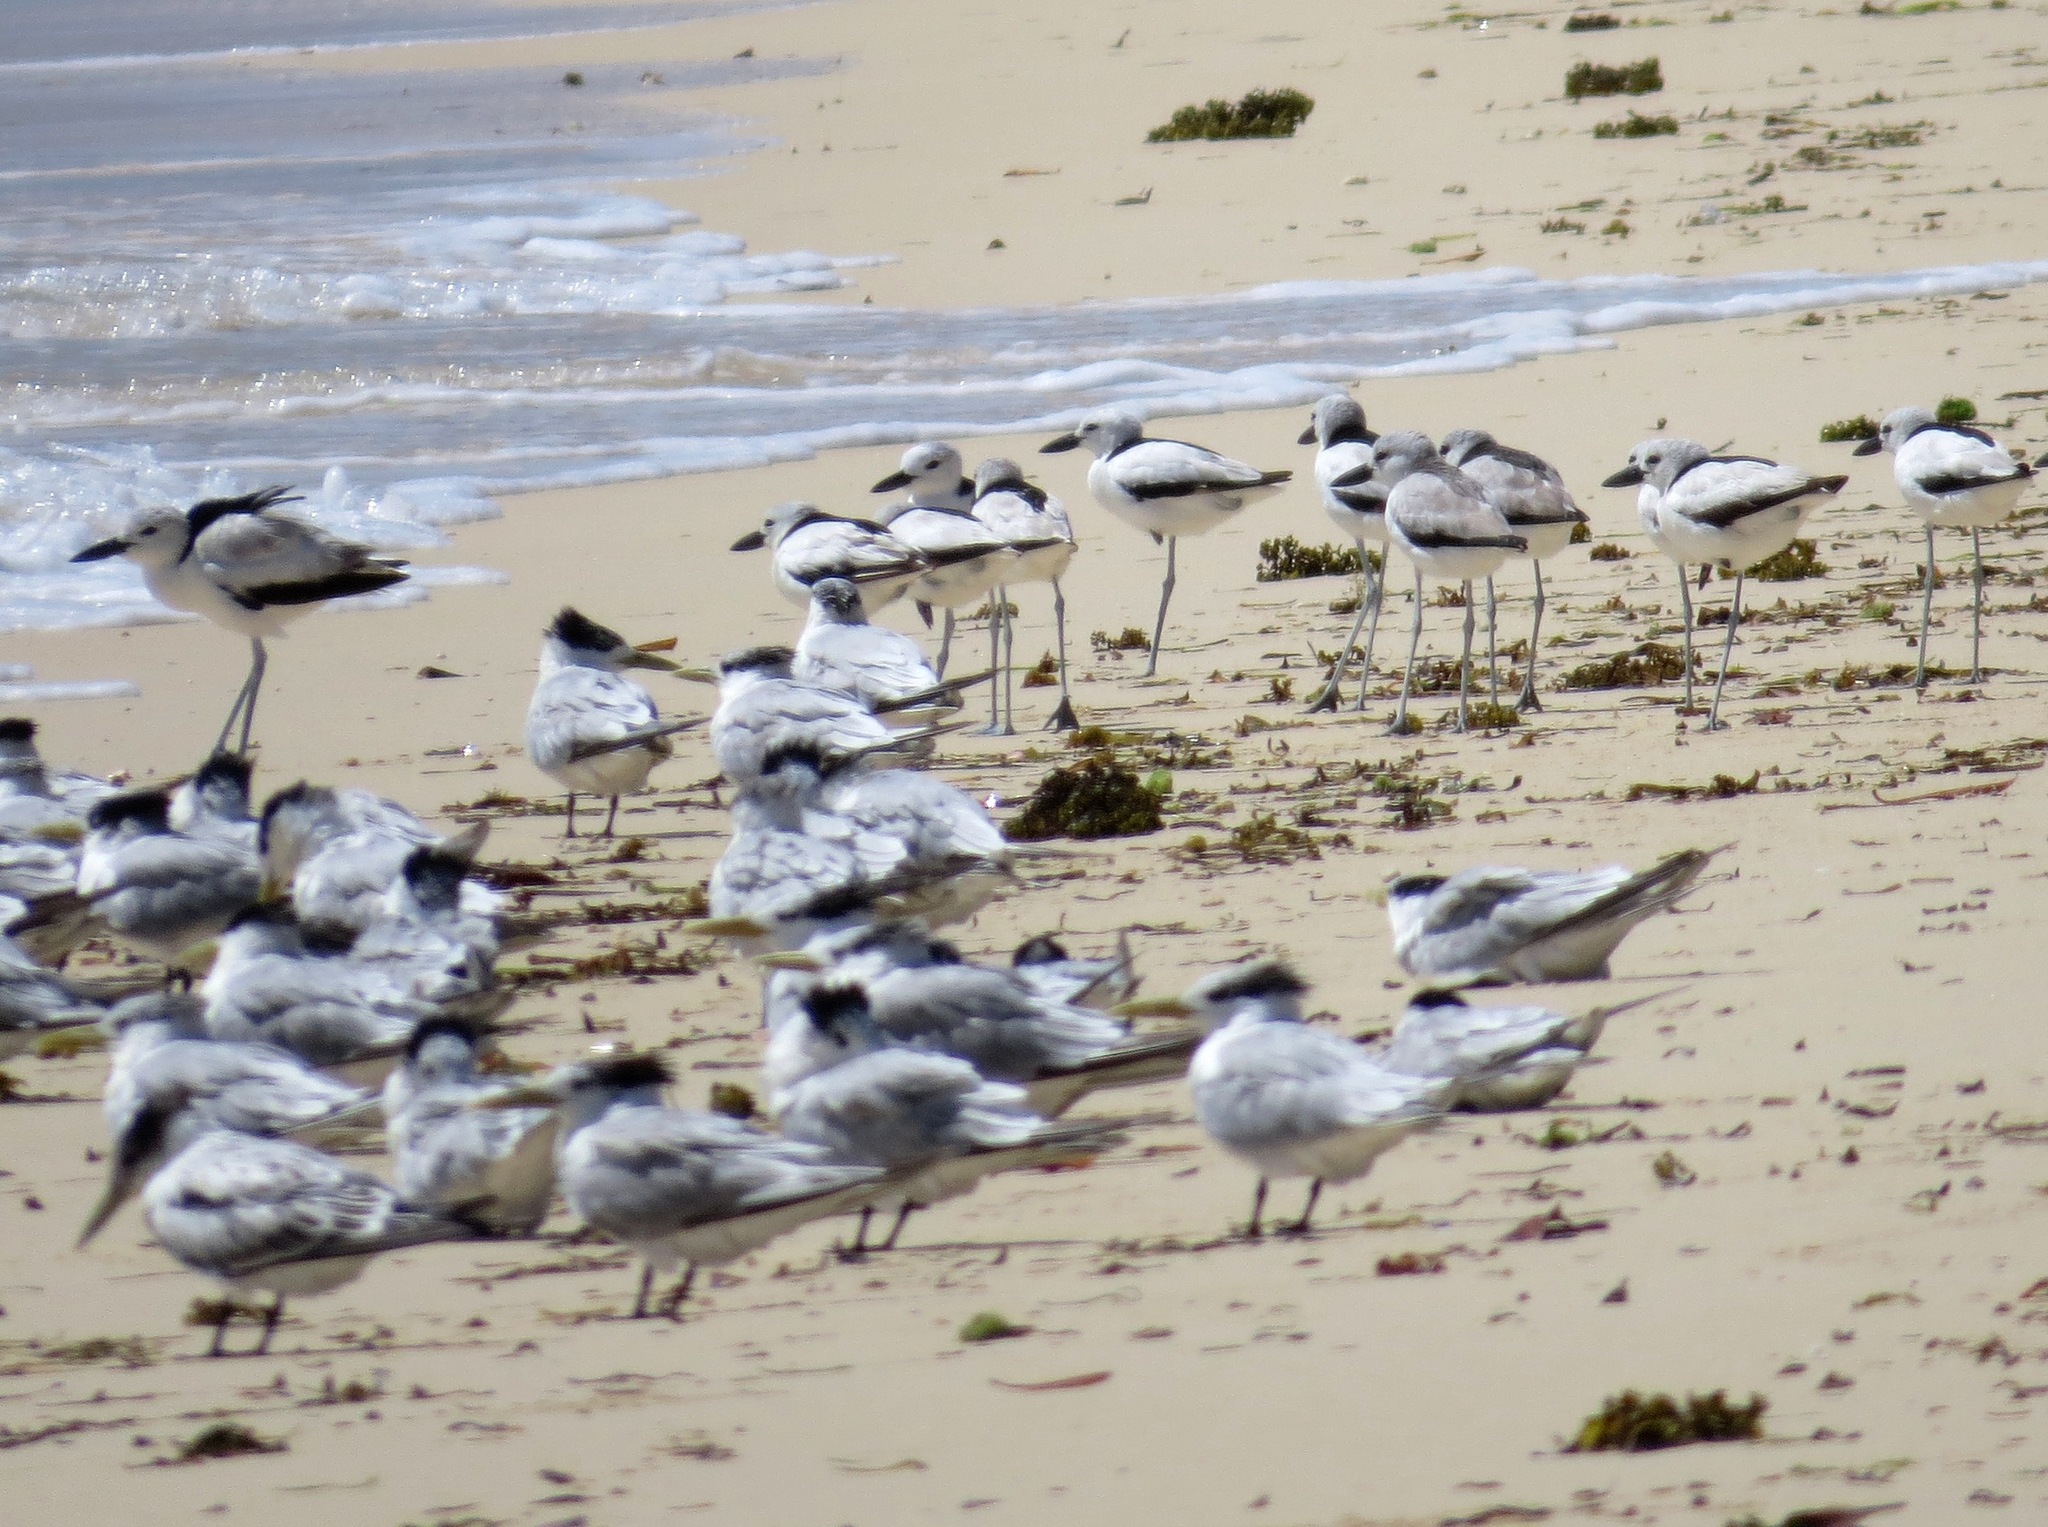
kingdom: Animalia
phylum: Chordata
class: Aves
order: Charadriiformes
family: Dromadidae
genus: Dromas
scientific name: Dromas ardeola
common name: Crab-plover
